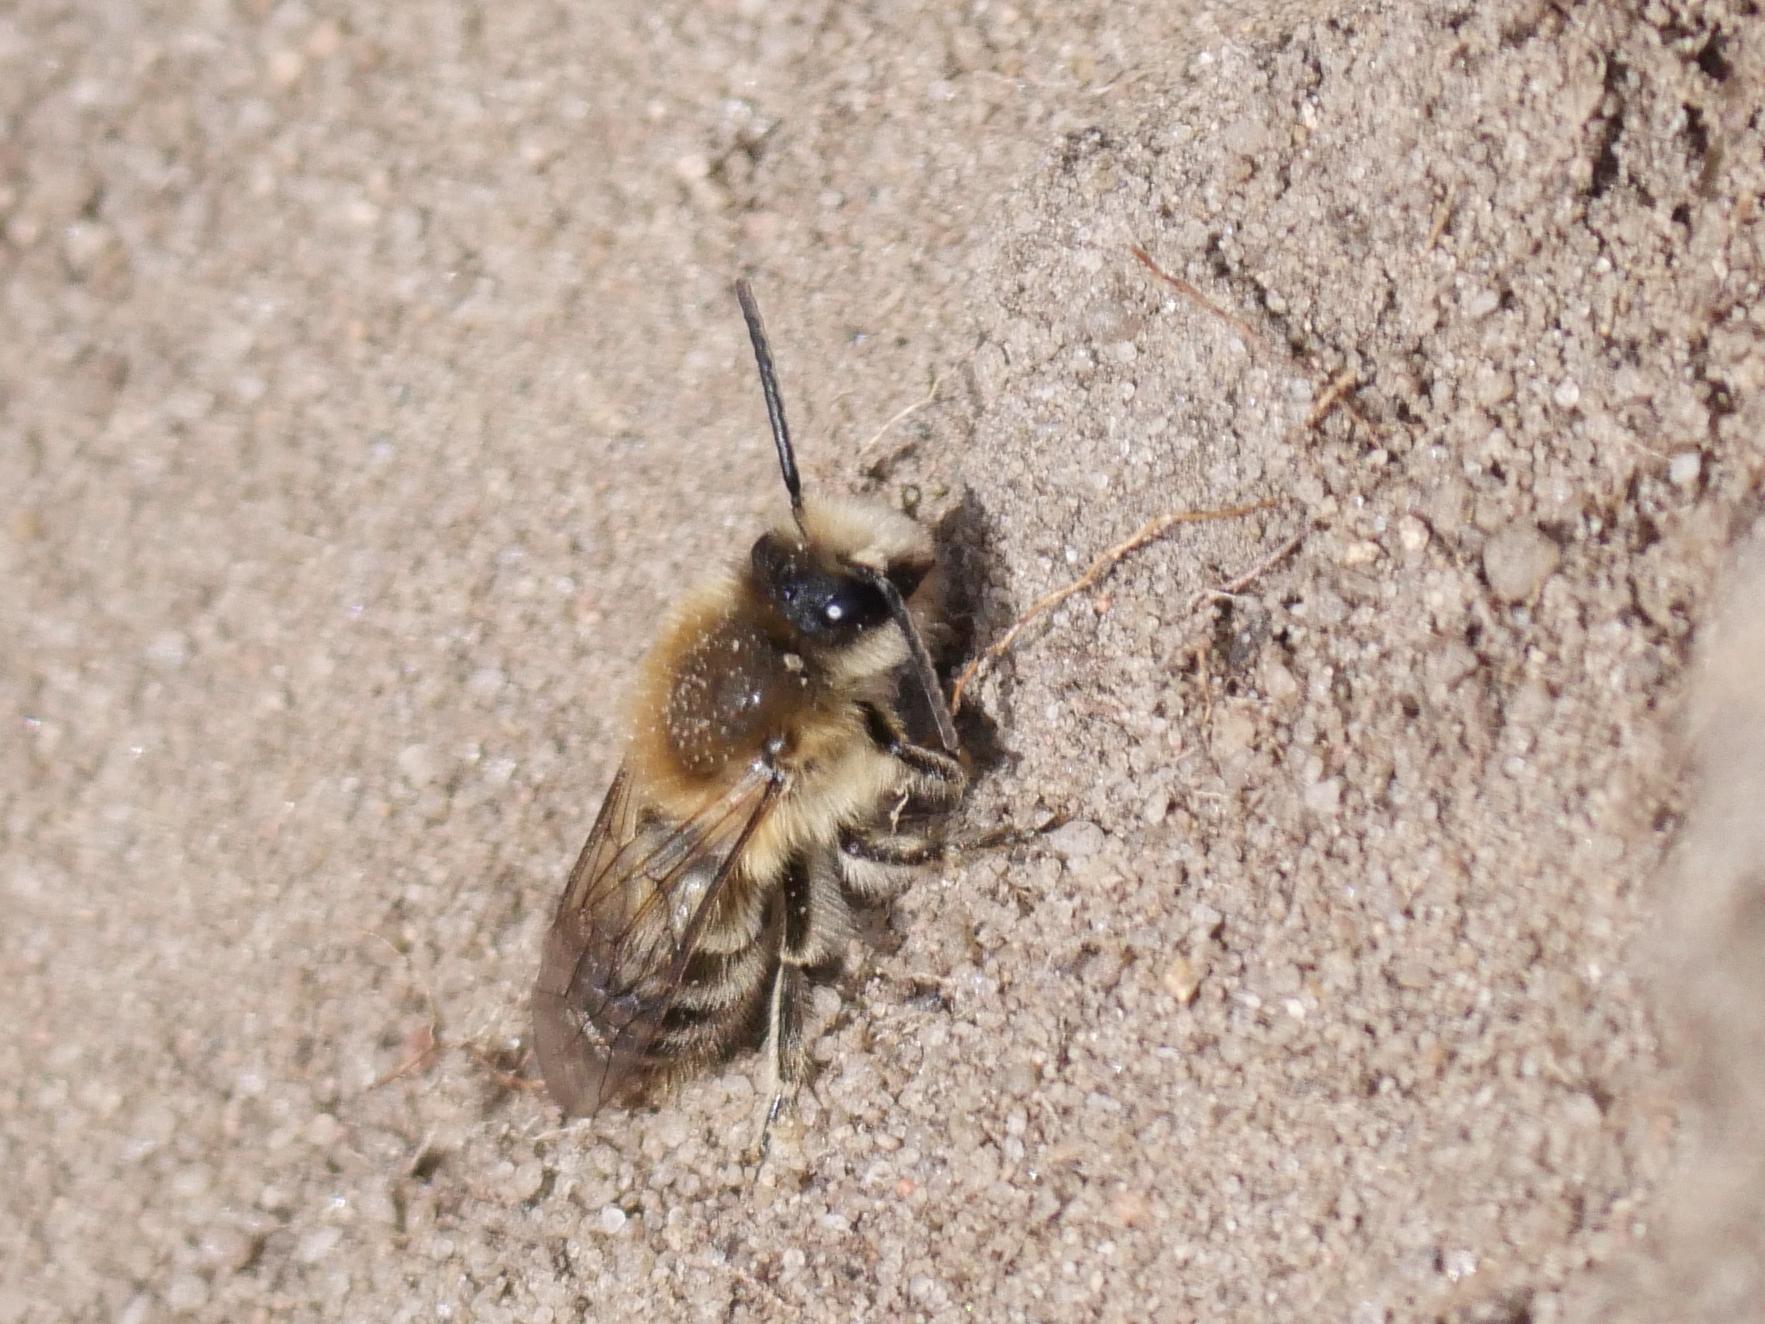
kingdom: Animalia
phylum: Arthropoda
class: Insecta
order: Hymenoptera
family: Colletidae
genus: Colletes
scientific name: Colletes cunicularius
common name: Early colletes
